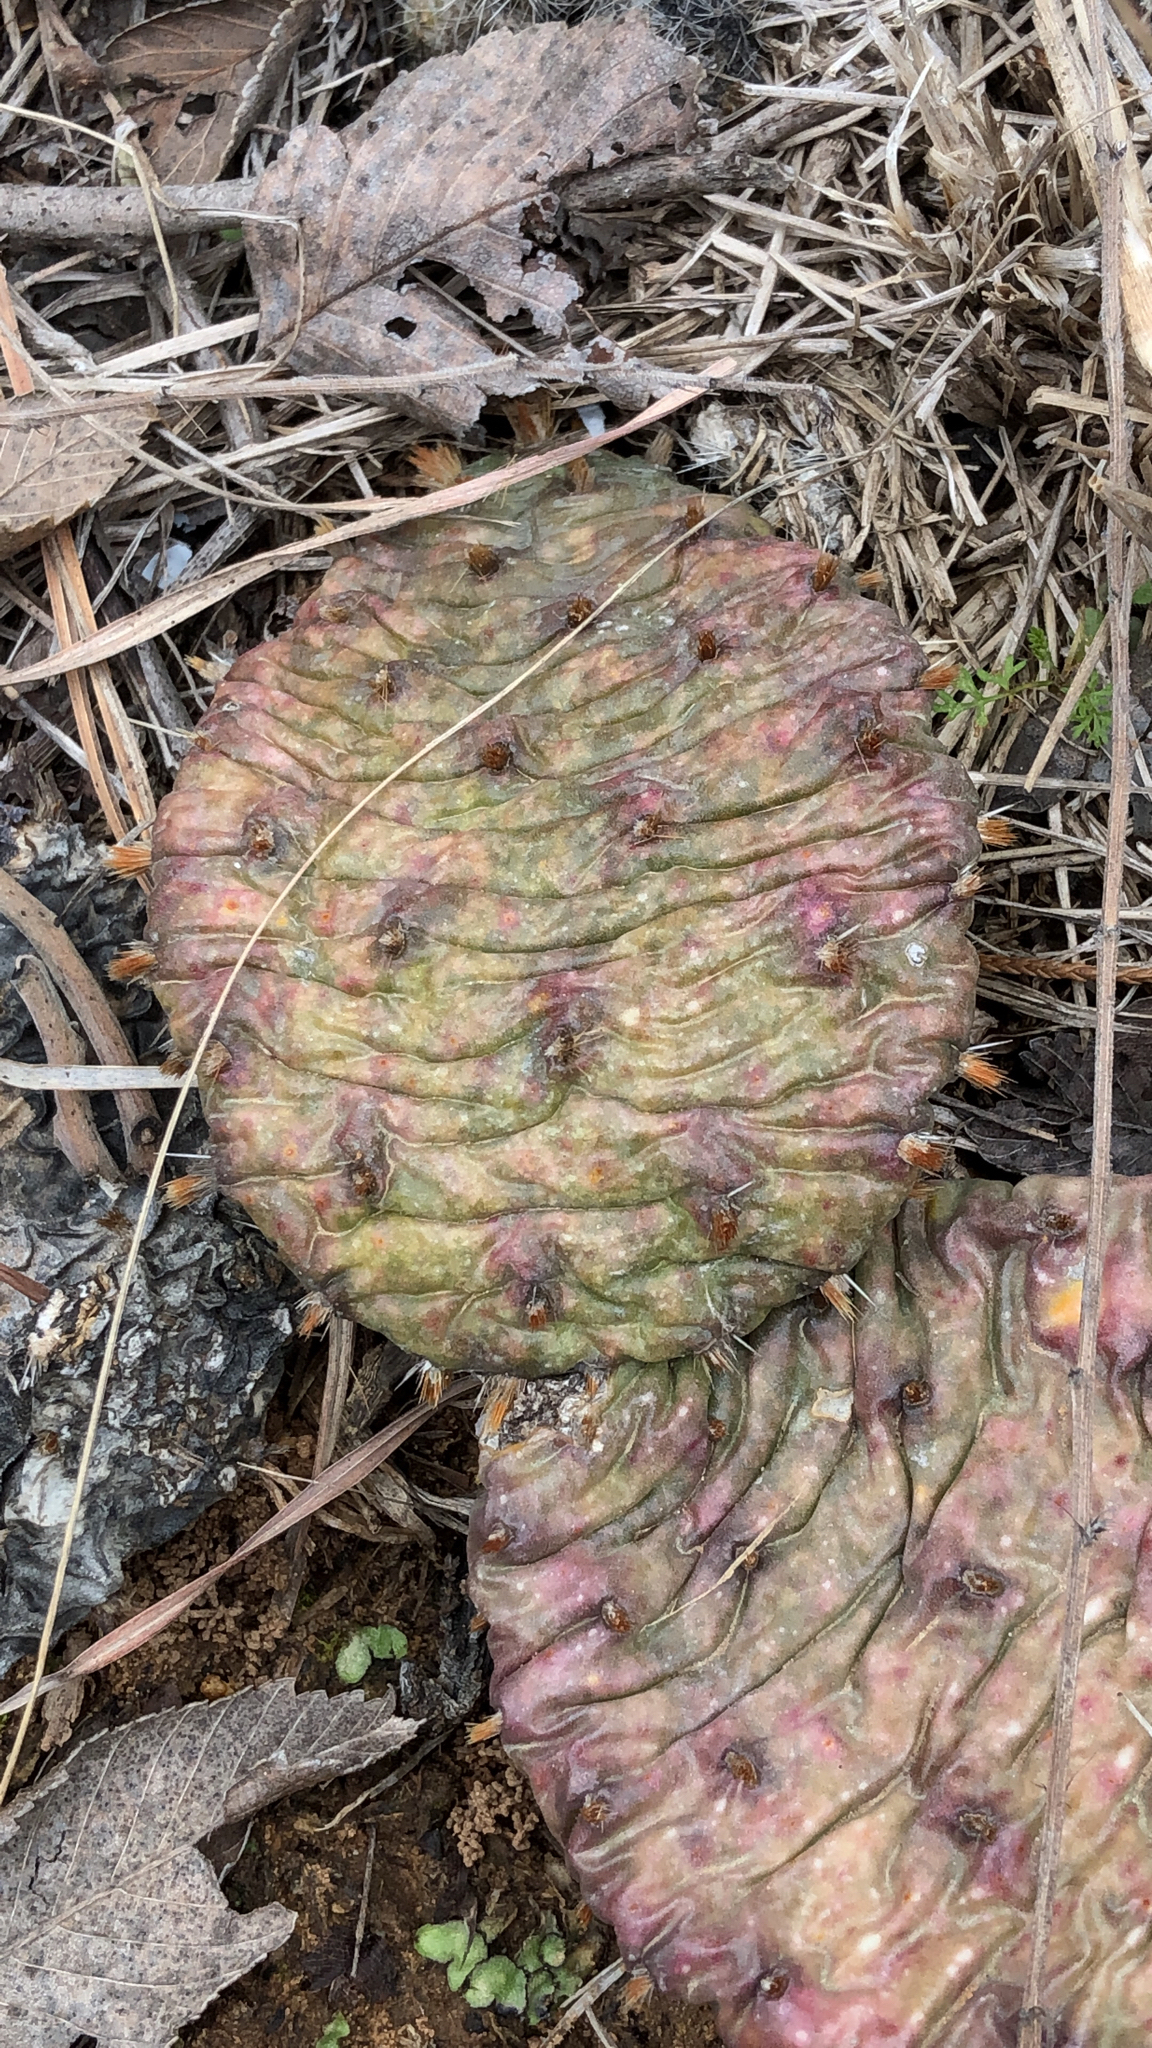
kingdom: Plantae
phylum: Tracheophyta
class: Magnoliopsida
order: Caryophyllales
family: Cactaceae
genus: Opuntia
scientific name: Opuntia macrorhiza
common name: Grassland pricklypear
